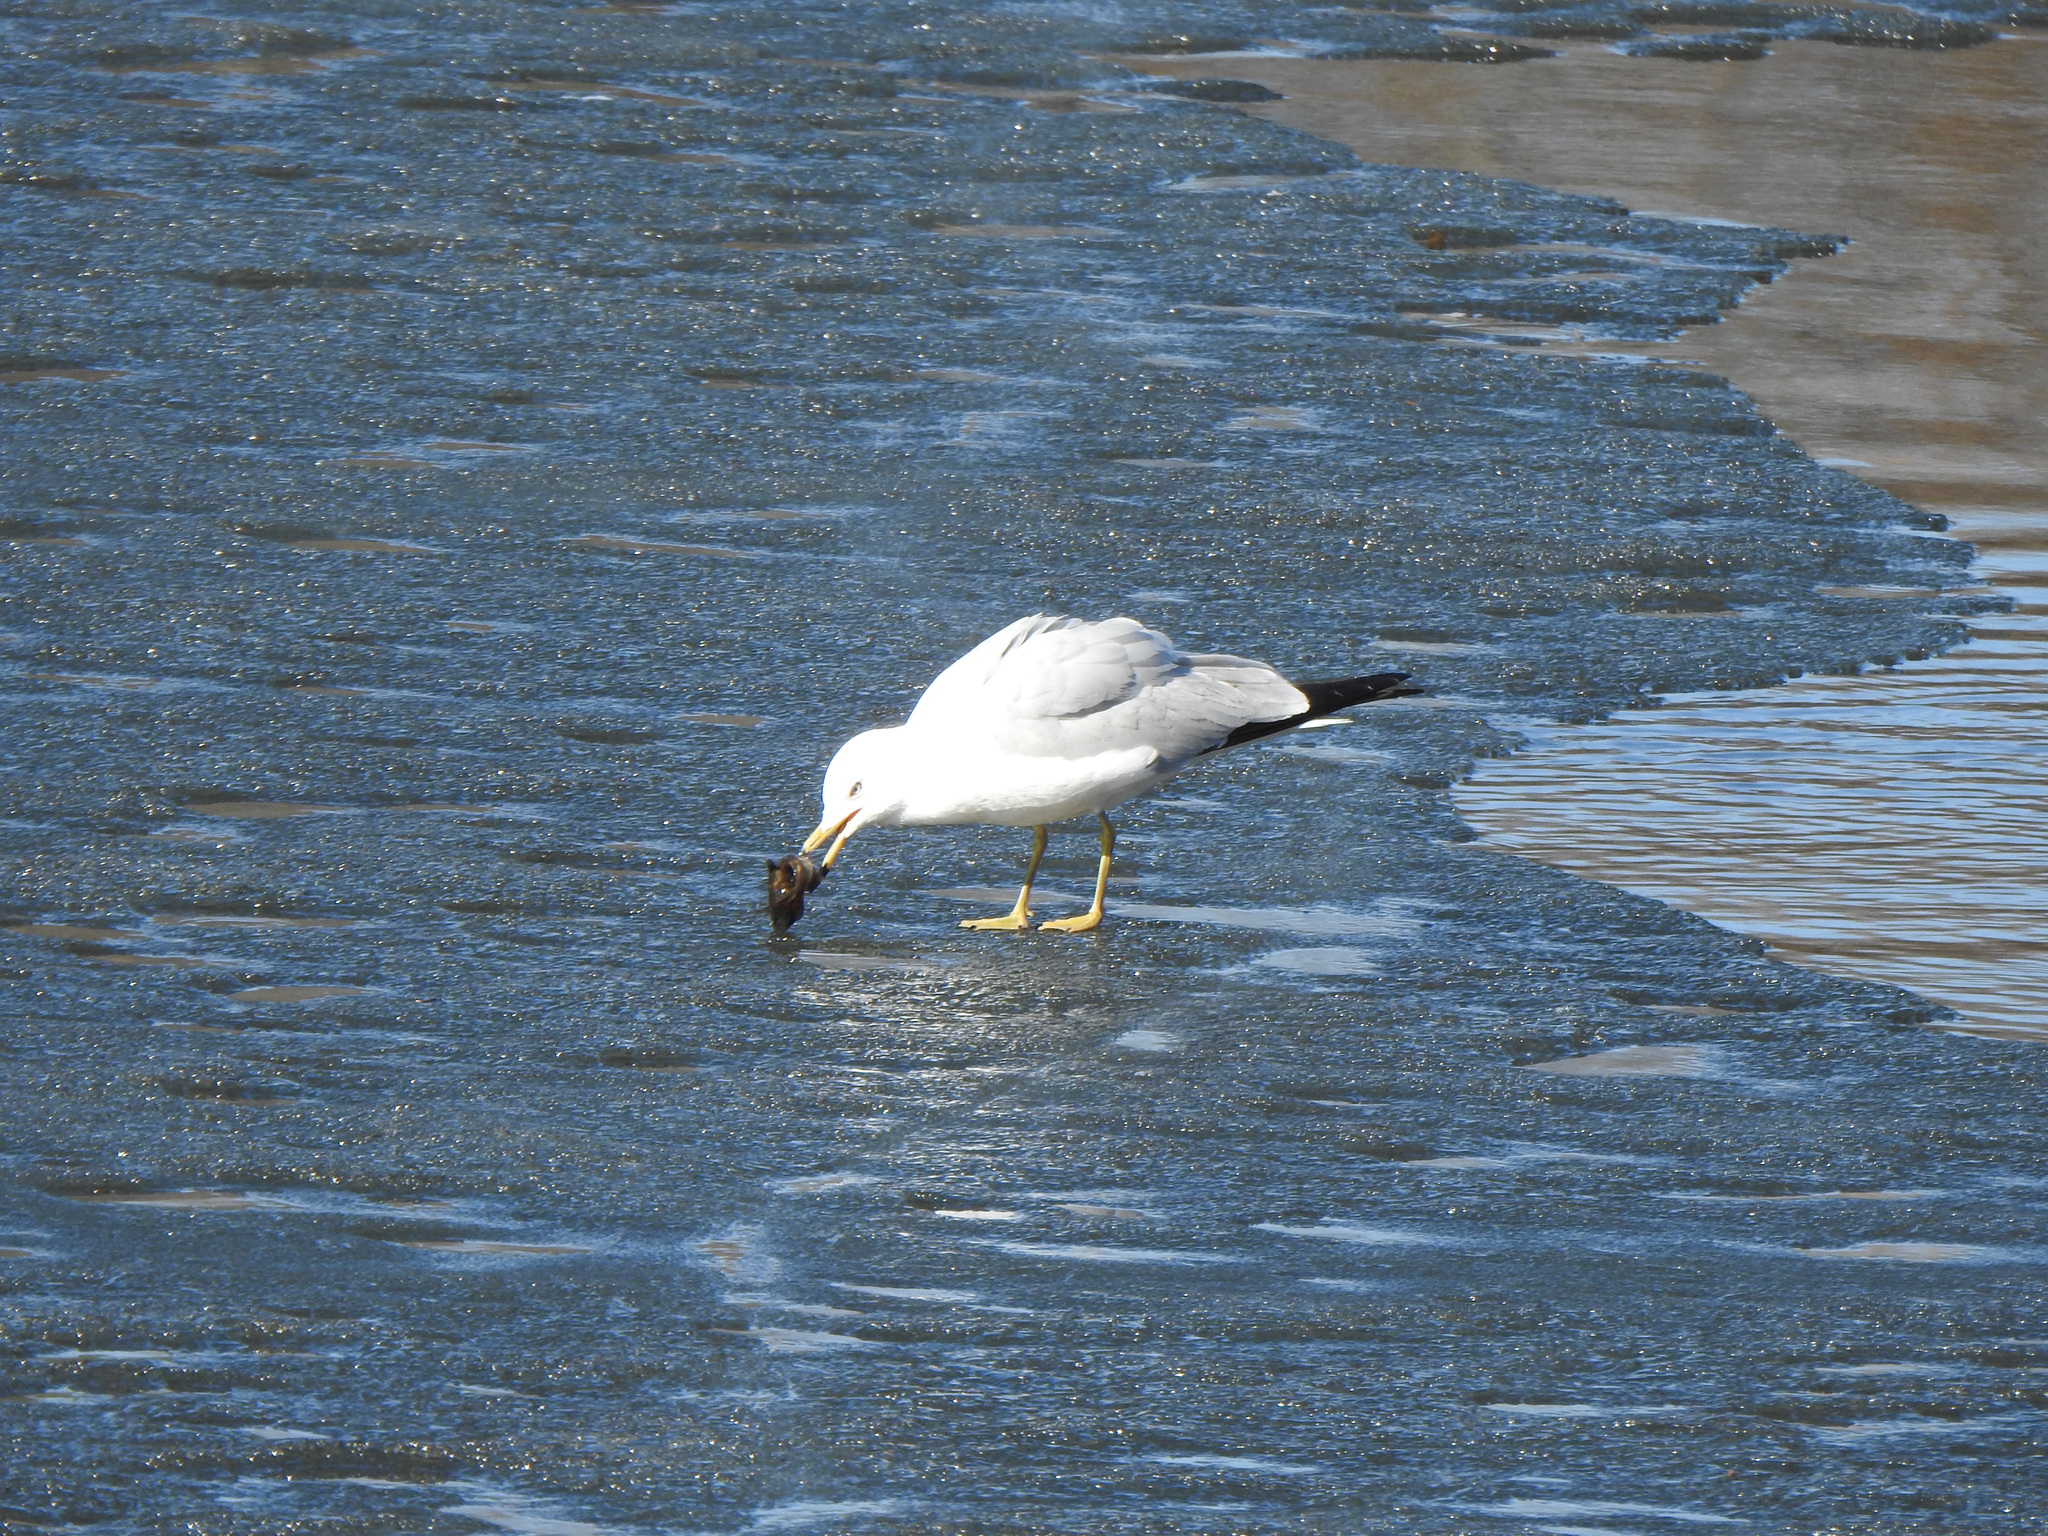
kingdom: Animalia
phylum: Chordata
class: Aves
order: Charadriiformes
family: Laridae
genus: Larus
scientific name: Larus delawarensis
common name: Ring-billed gull
